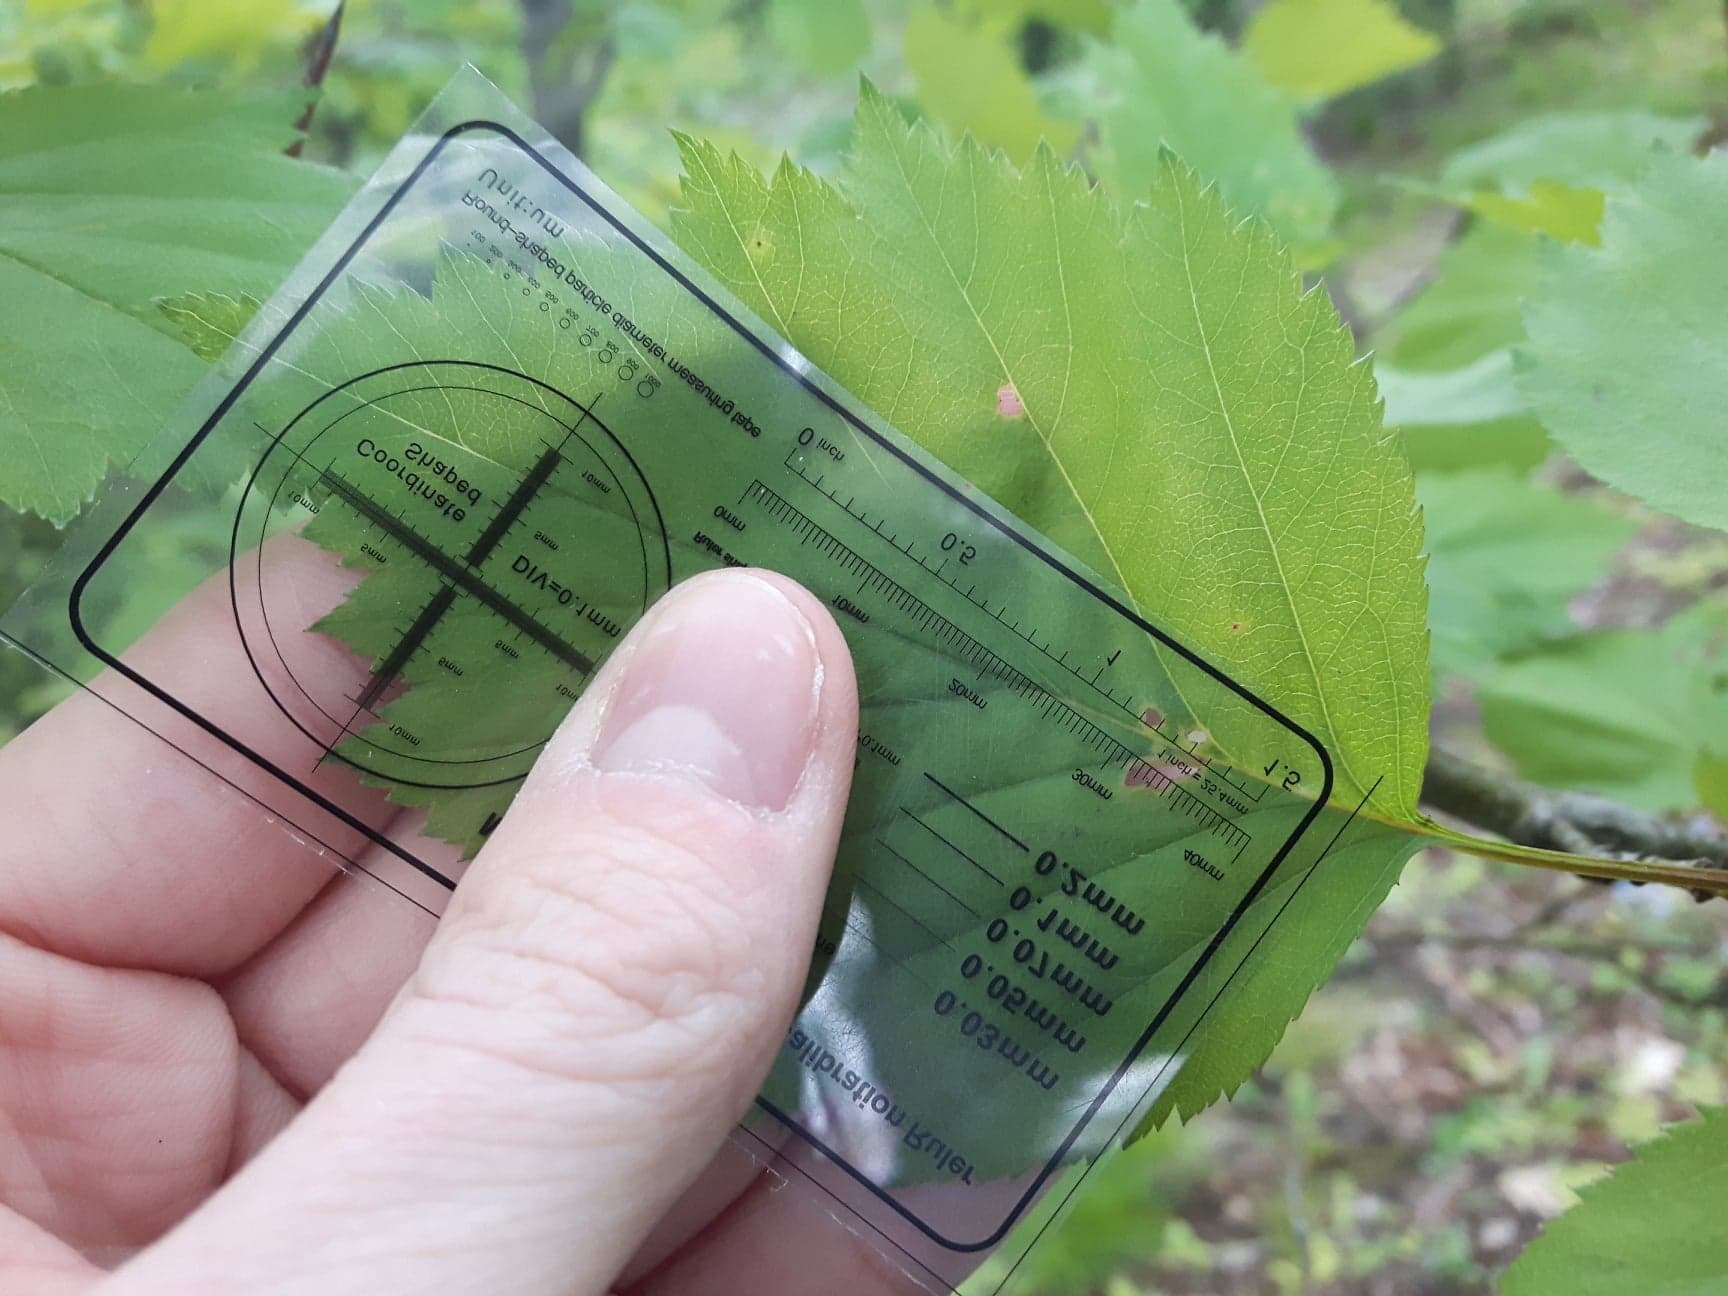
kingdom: Plantae
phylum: Tracheophyta
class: Magnoliopsida
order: Rosales
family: Rosaceae
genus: Crataegus
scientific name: Crataegus schuettei
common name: Schuette's hawthorn
